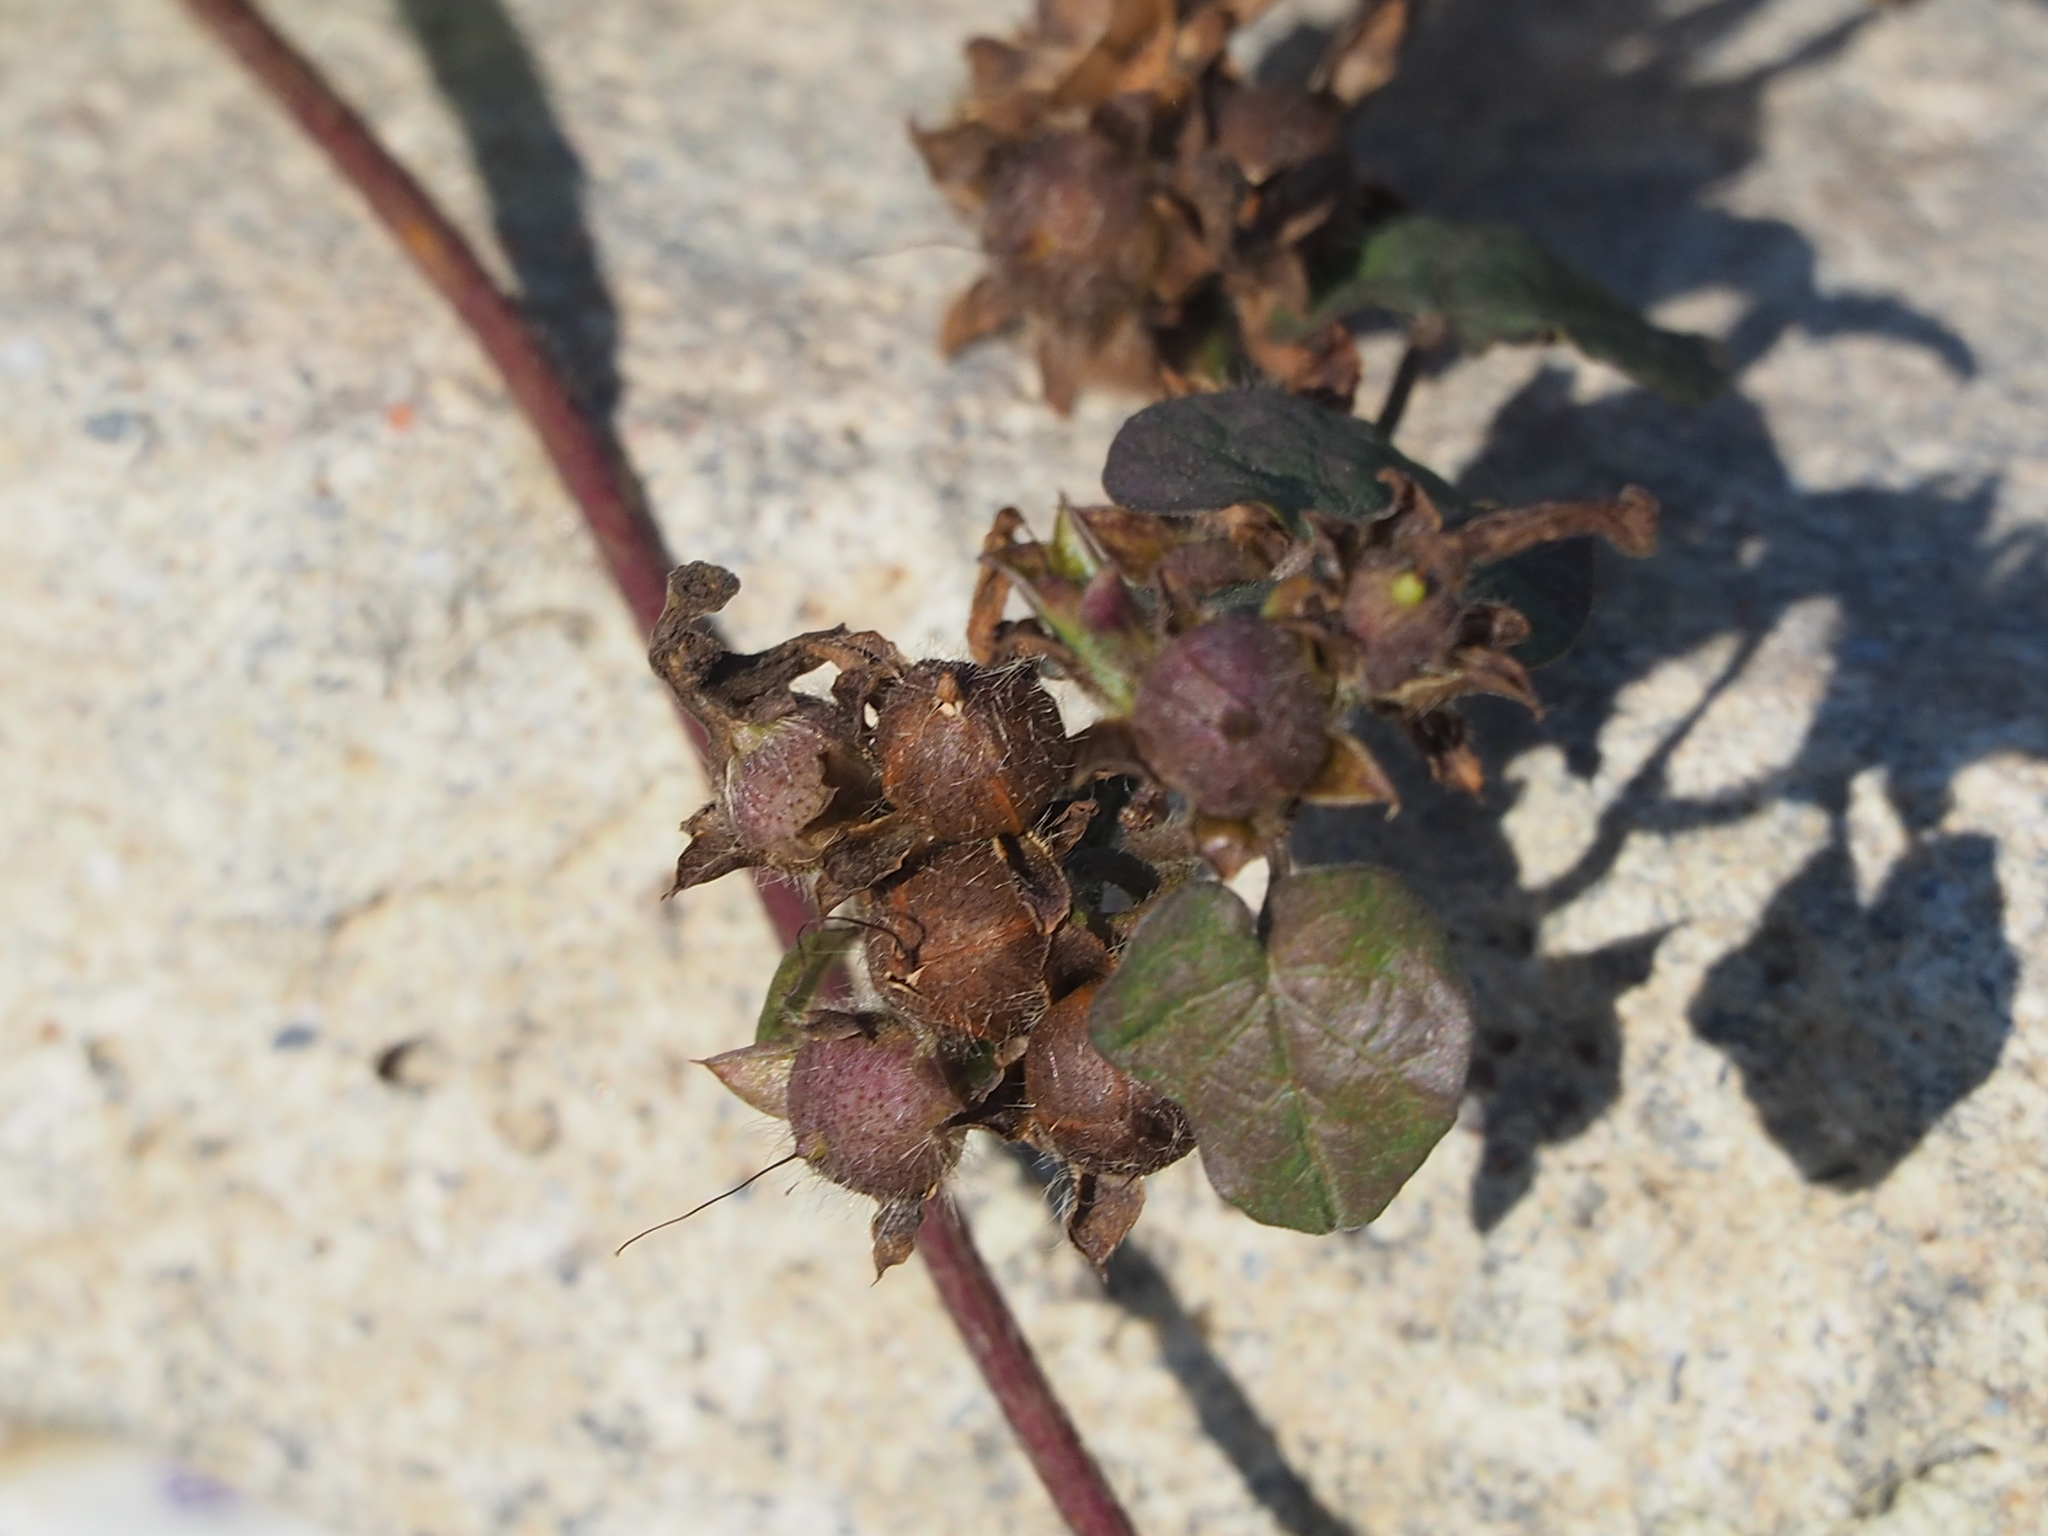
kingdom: Plantae
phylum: Tracheophyta
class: Magnoliopsida
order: Solanales
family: Convolvulaceae
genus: Ipomoea
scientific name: Ipomoea nil
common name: Japanese morning-glory
